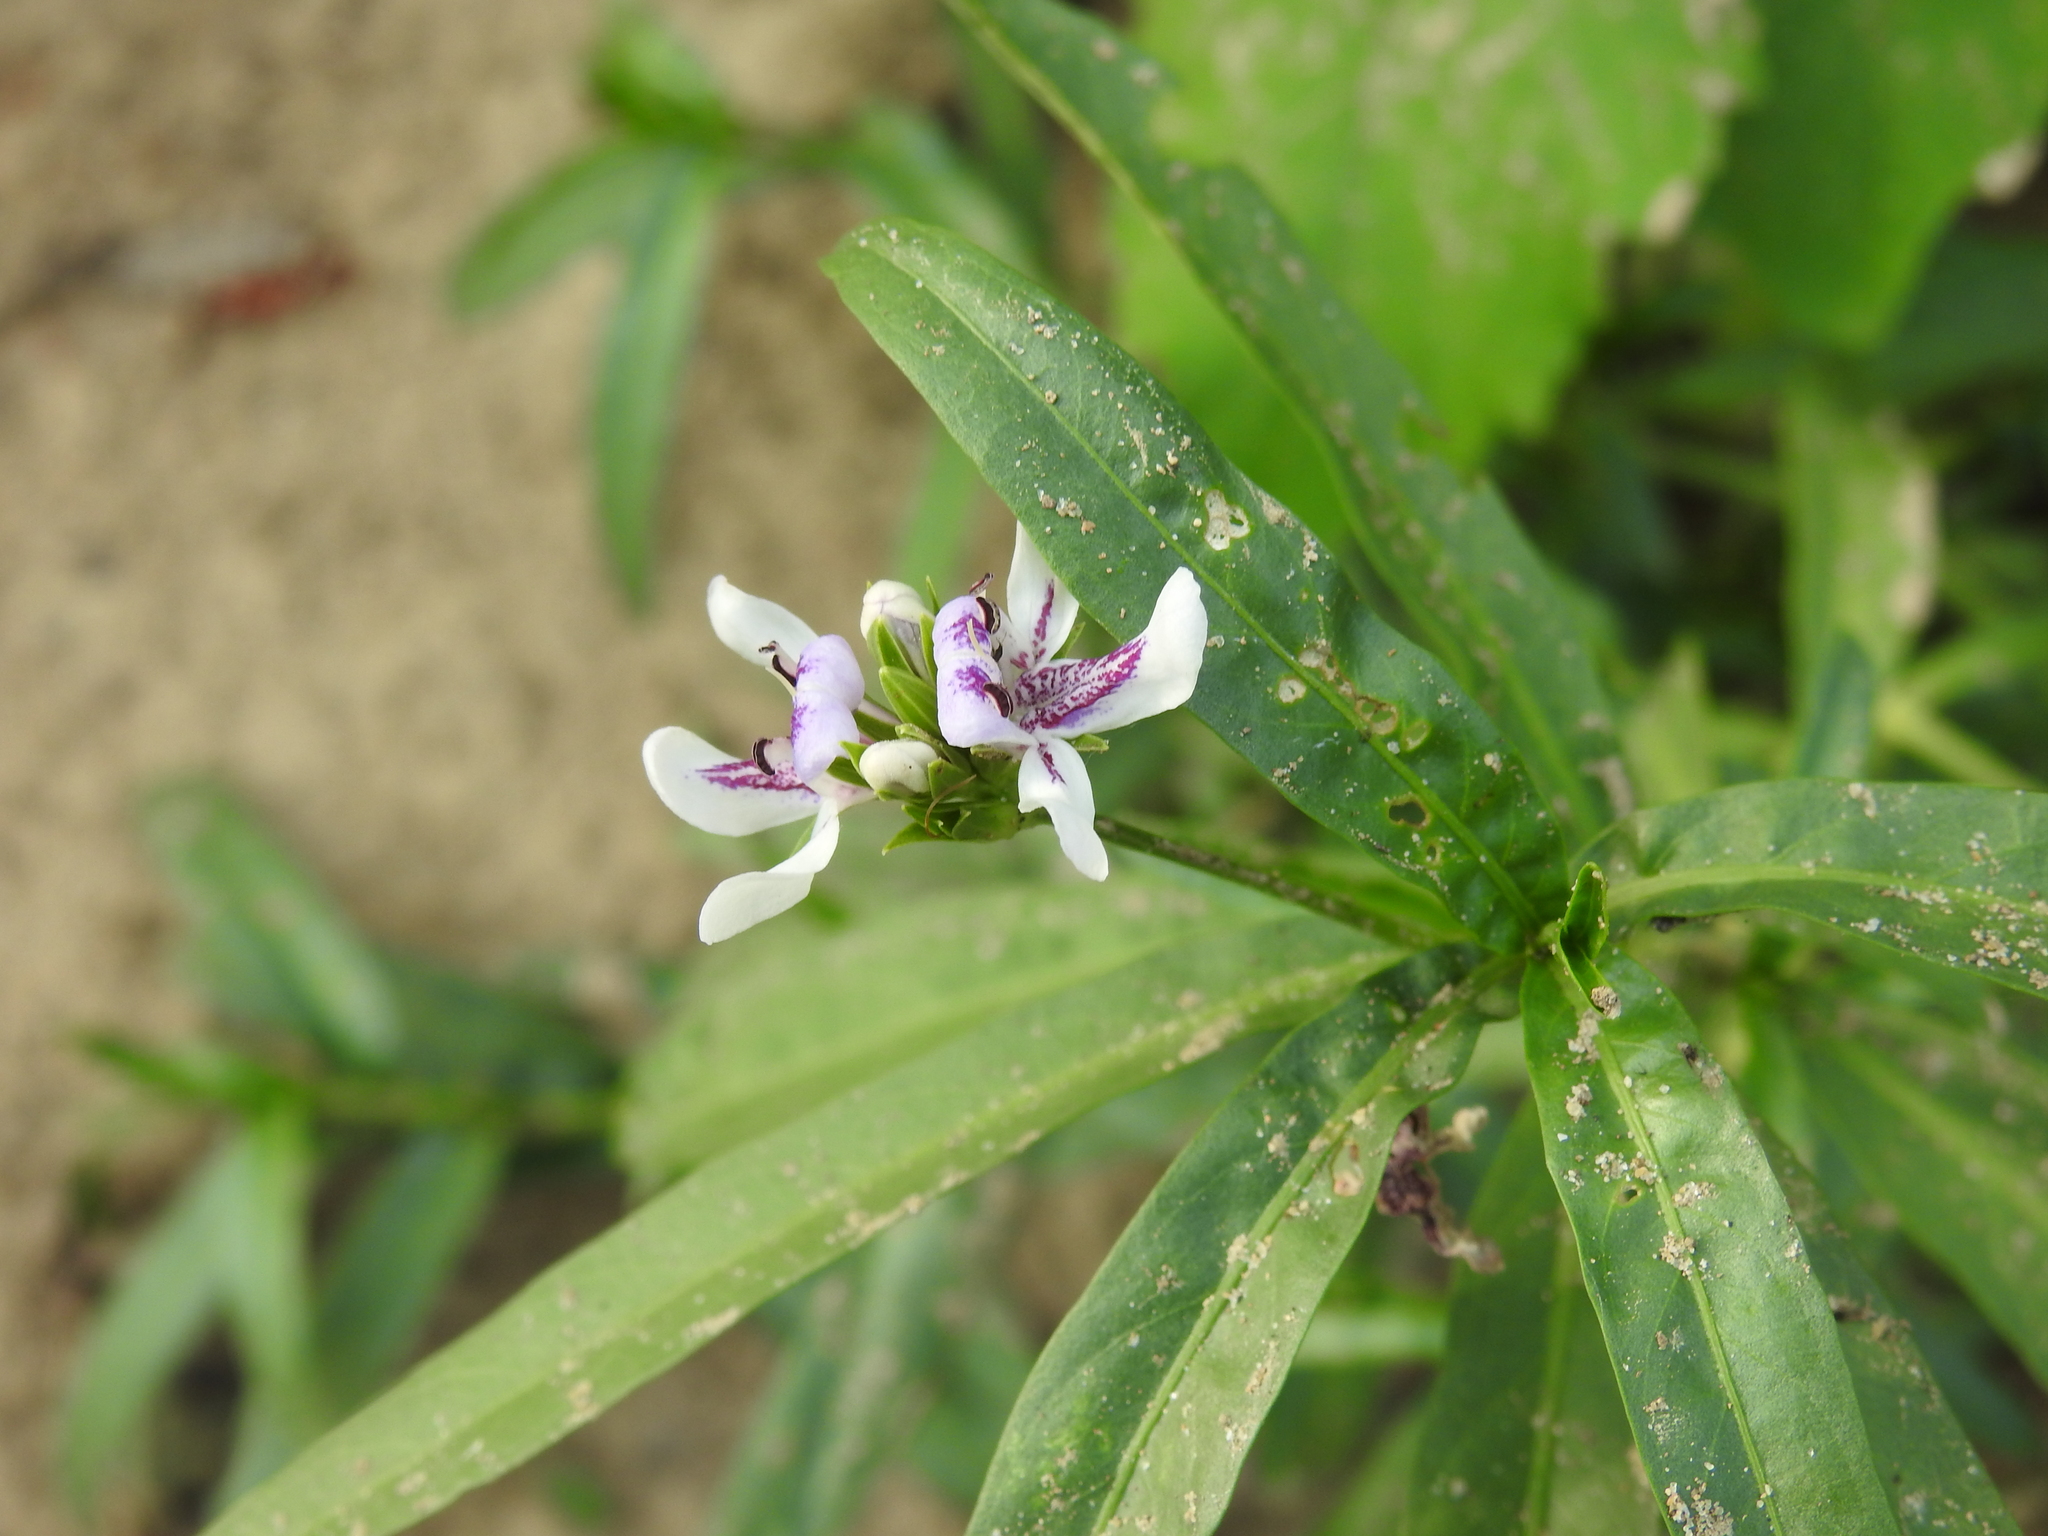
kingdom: Plantae
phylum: Tracheophyta
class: Magnoliopsida
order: Lamiales
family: Acanthaceae
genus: Dianthera
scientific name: Dianthera americana
